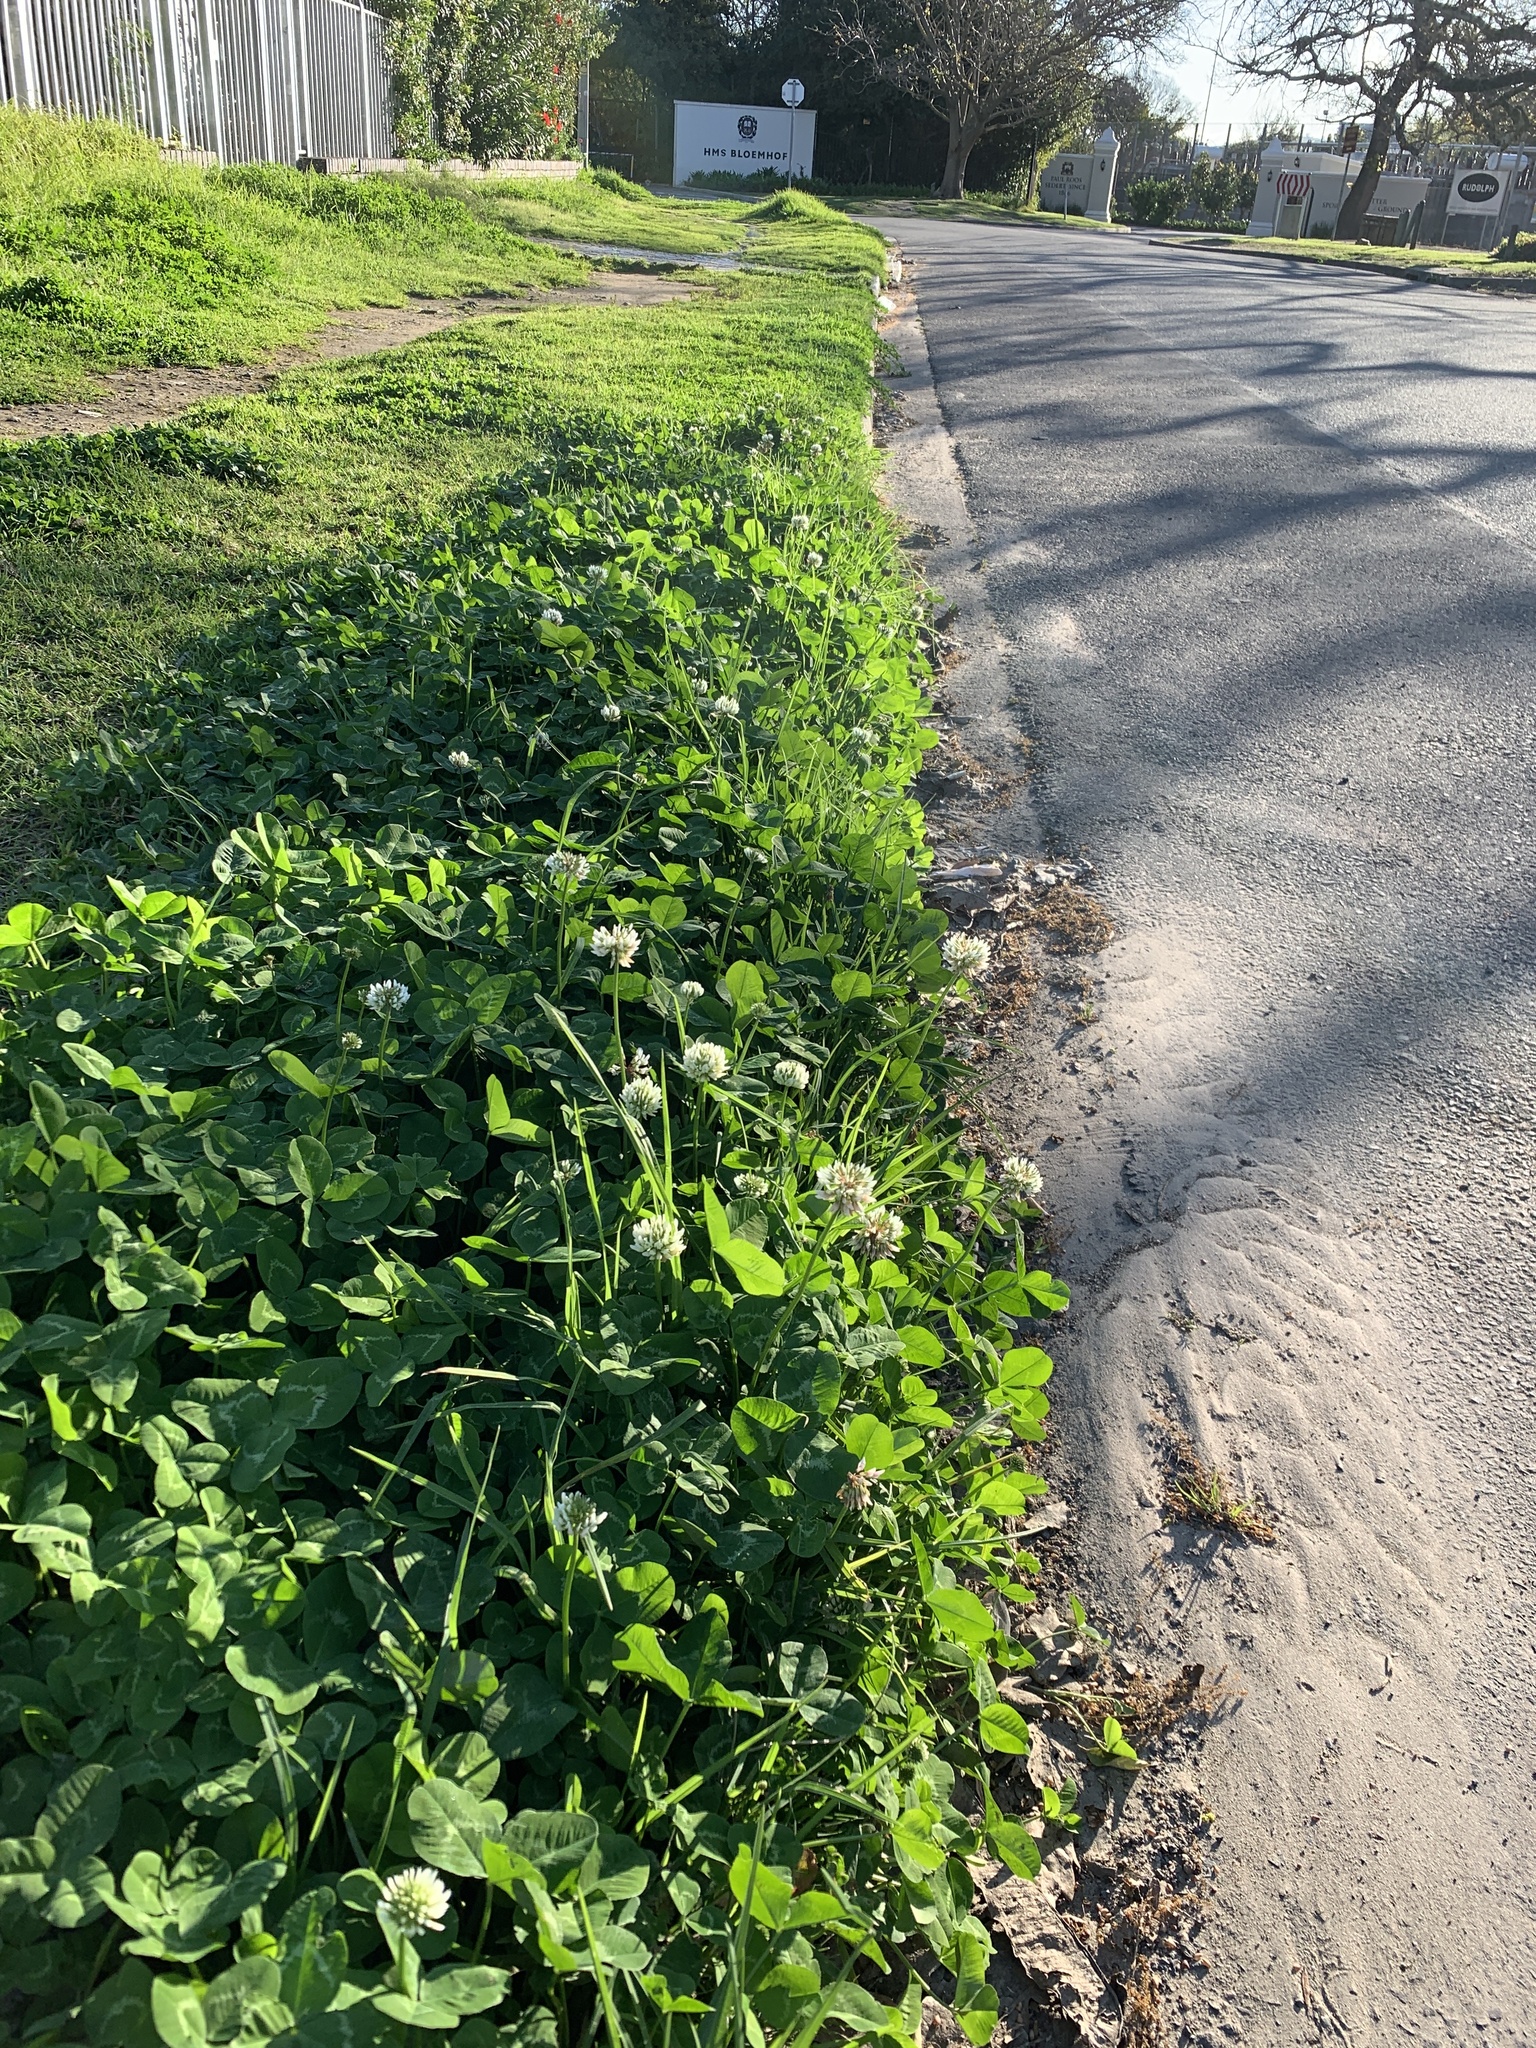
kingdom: Plantae
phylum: Tracheophyta
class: Magnoliopsida
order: Fabales
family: Fabaceae
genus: Trifolium
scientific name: Trifolium repens
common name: White clover
